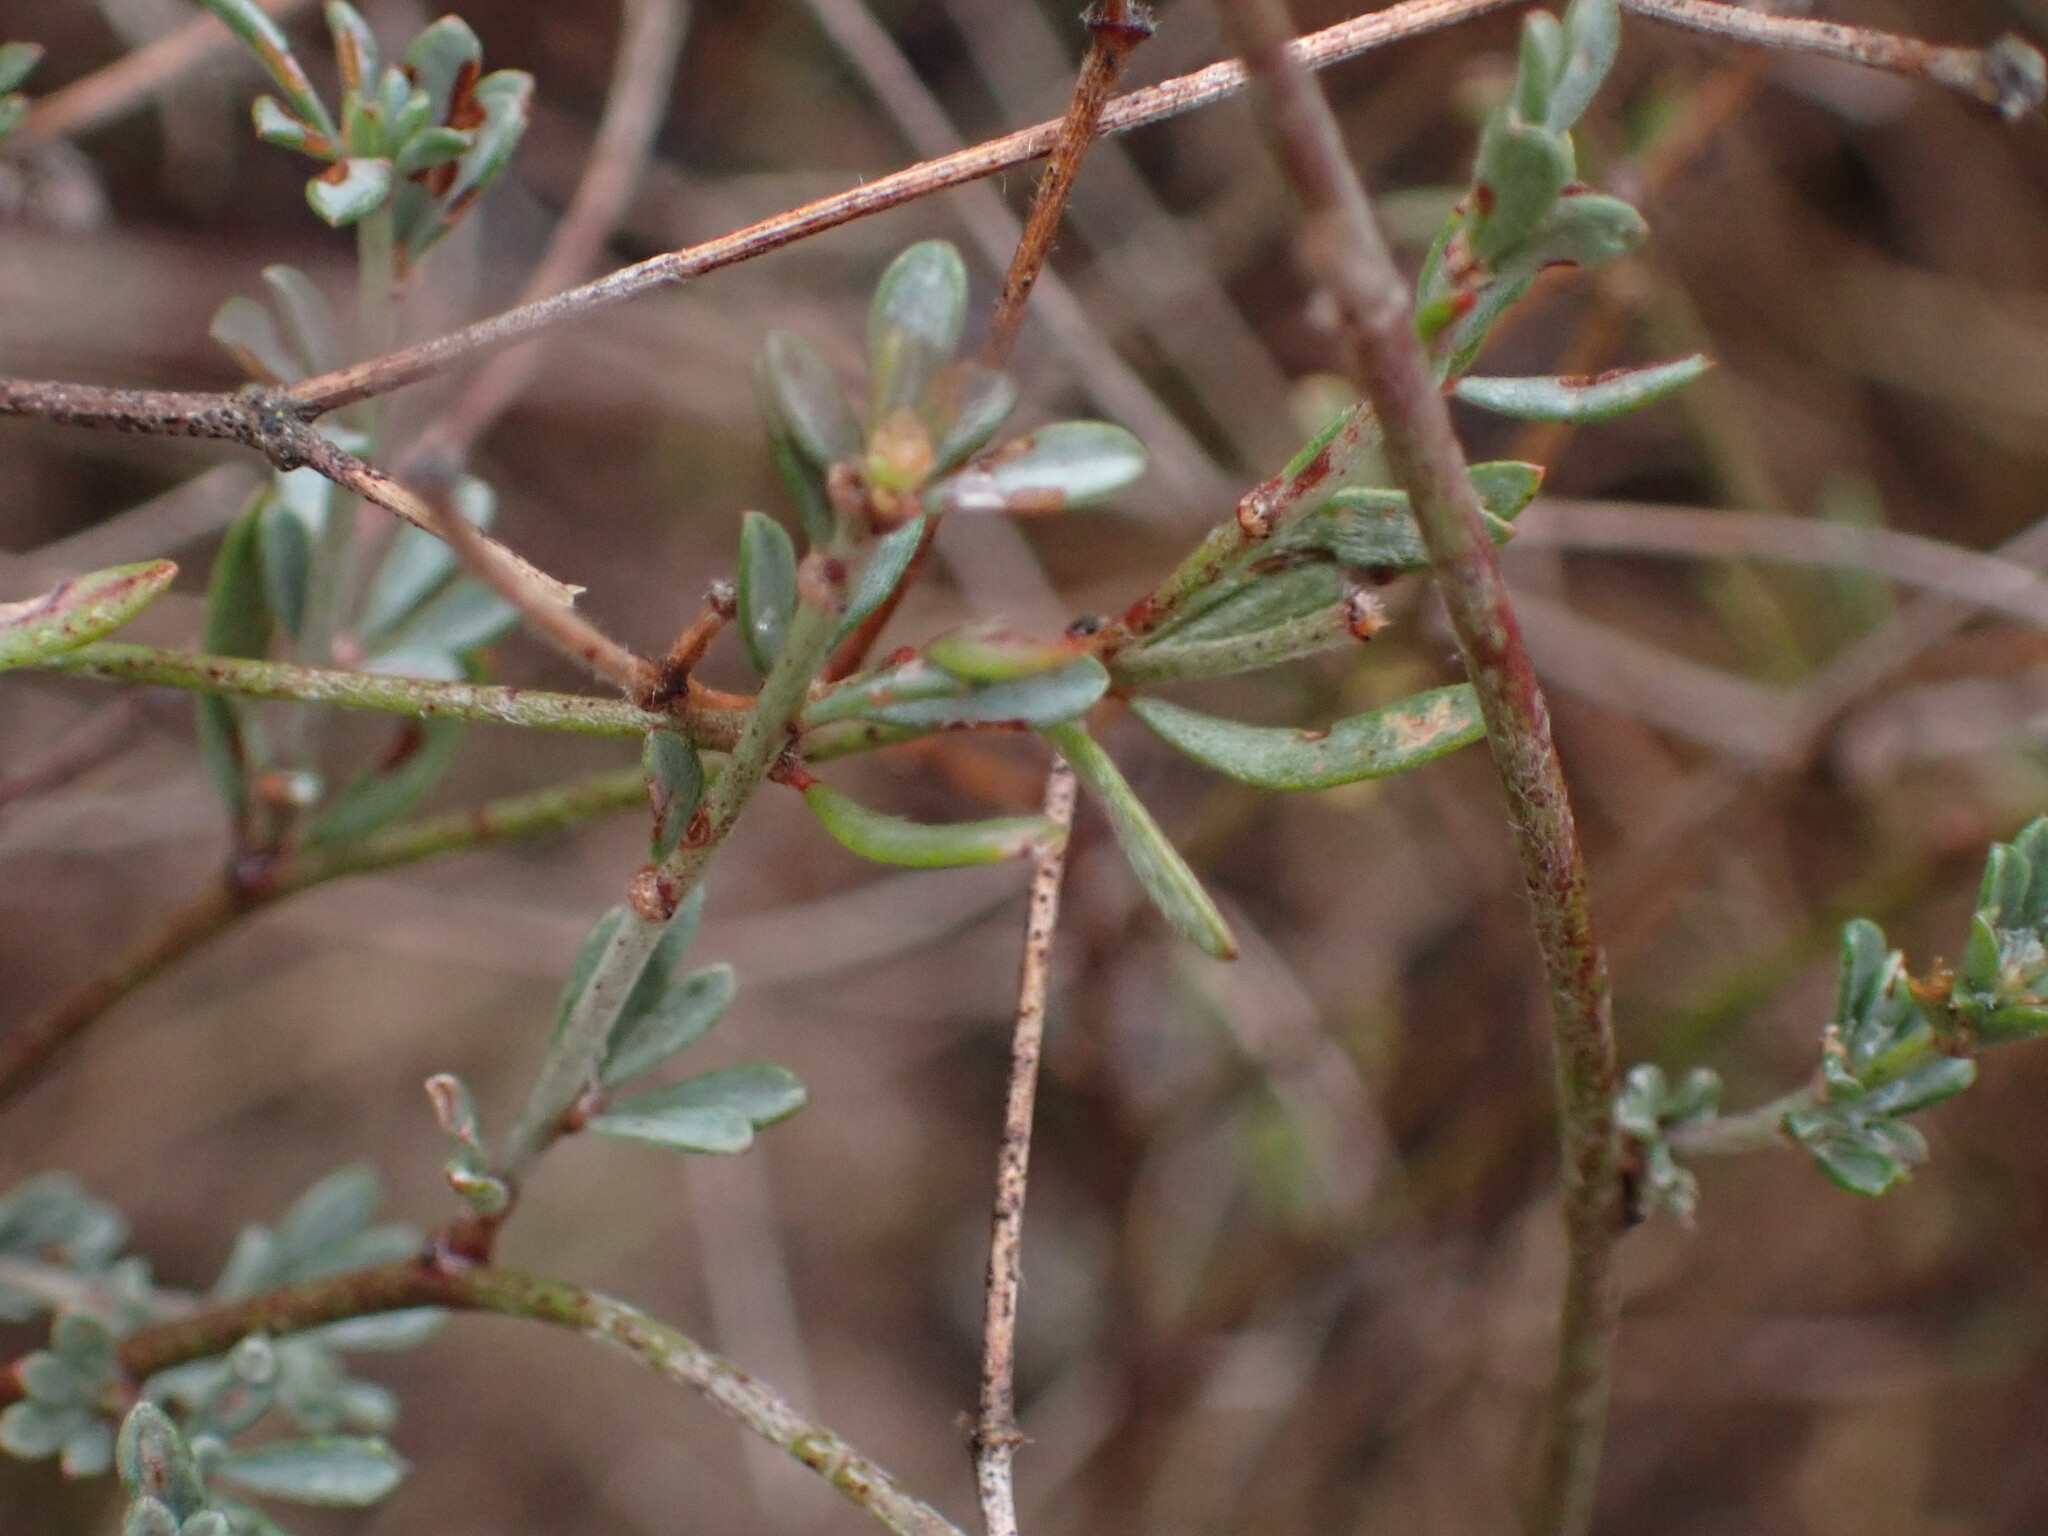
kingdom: Plantae
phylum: Tracheophyta
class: Magnoliopsida
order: Fabales
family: Fabaceae
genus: Lotus
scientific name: Lotus dorycnium
